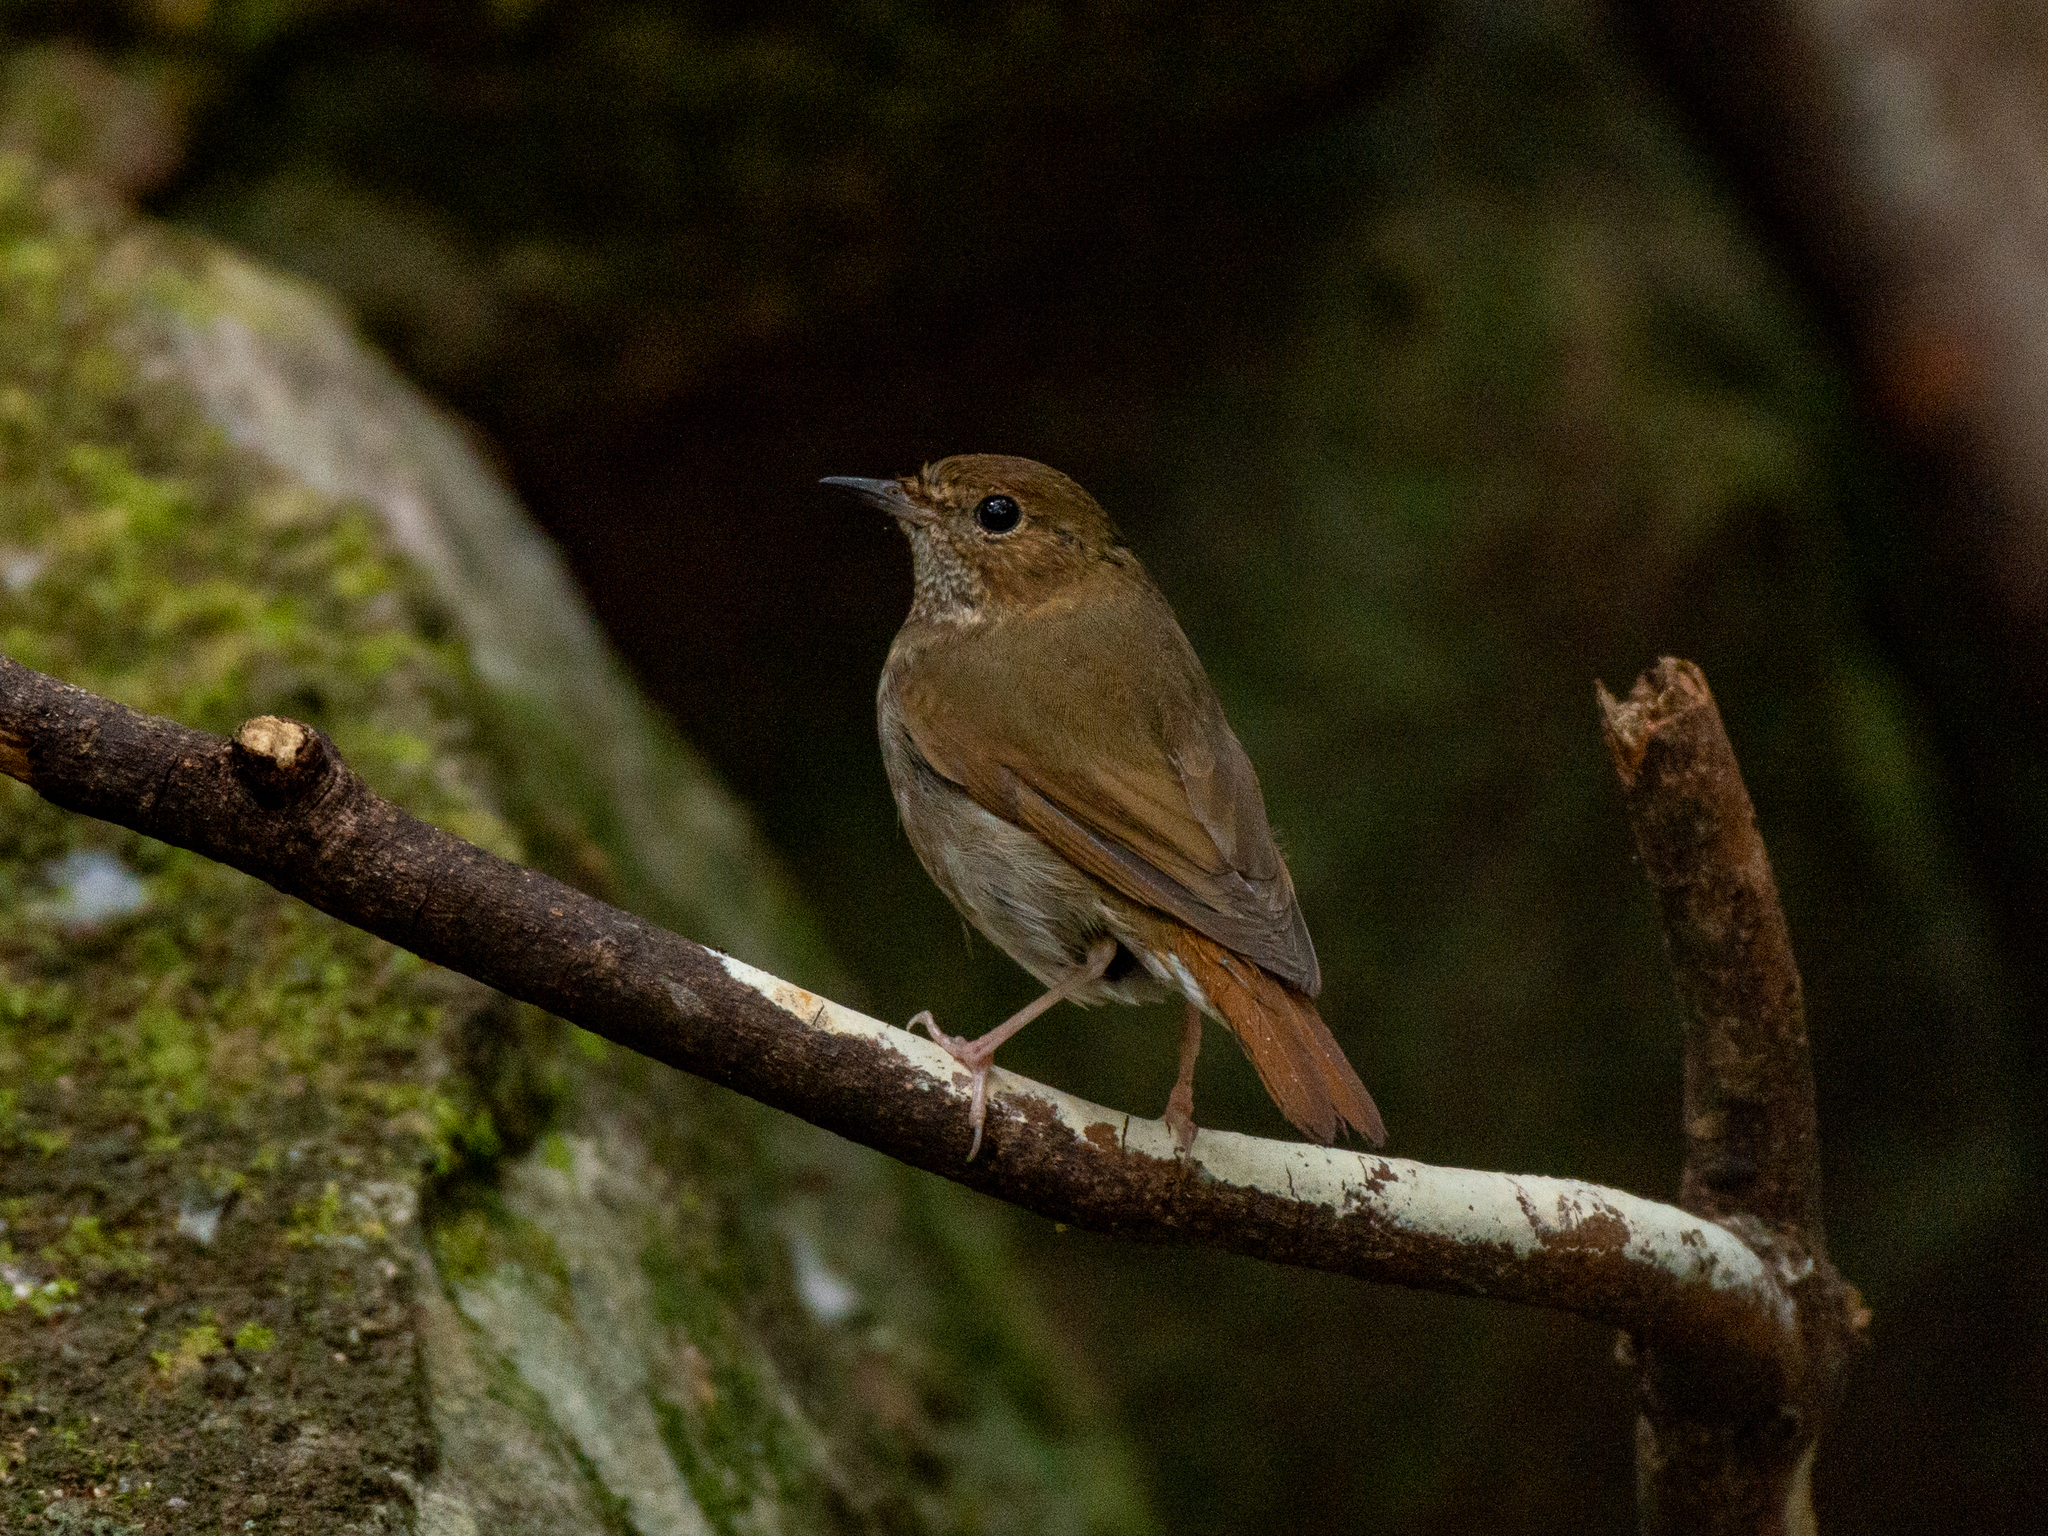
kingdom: Animalia
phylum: Chordata
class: Aves
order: Passeriformes
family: Muscicapidae
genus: Larvivora
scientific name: Larvivora sibilans
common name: Rufous-tailed robin
